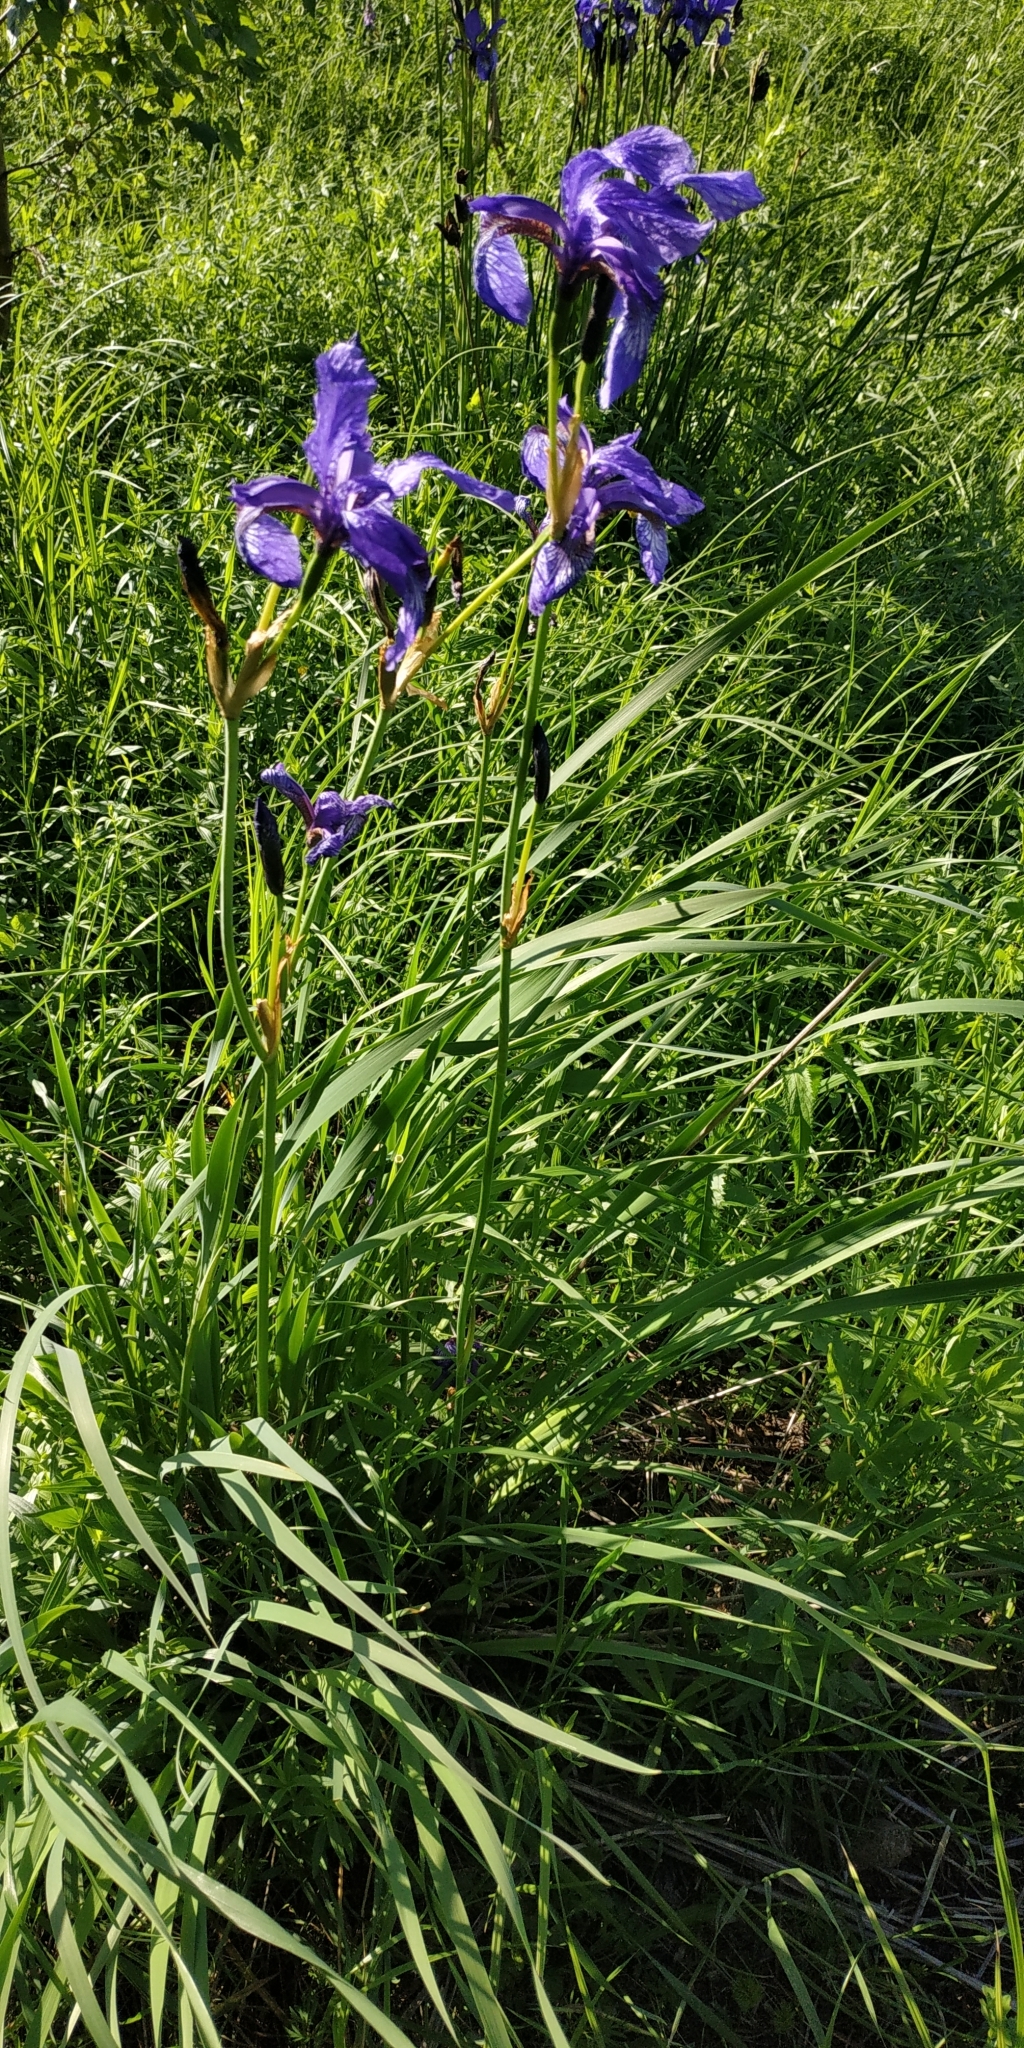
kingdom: Plantae
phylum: Tracheophyta
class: Liliopsida
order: Asparagales
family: Iridaceae
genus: Iris
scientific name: Iris sibirica
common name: Siberian iris
